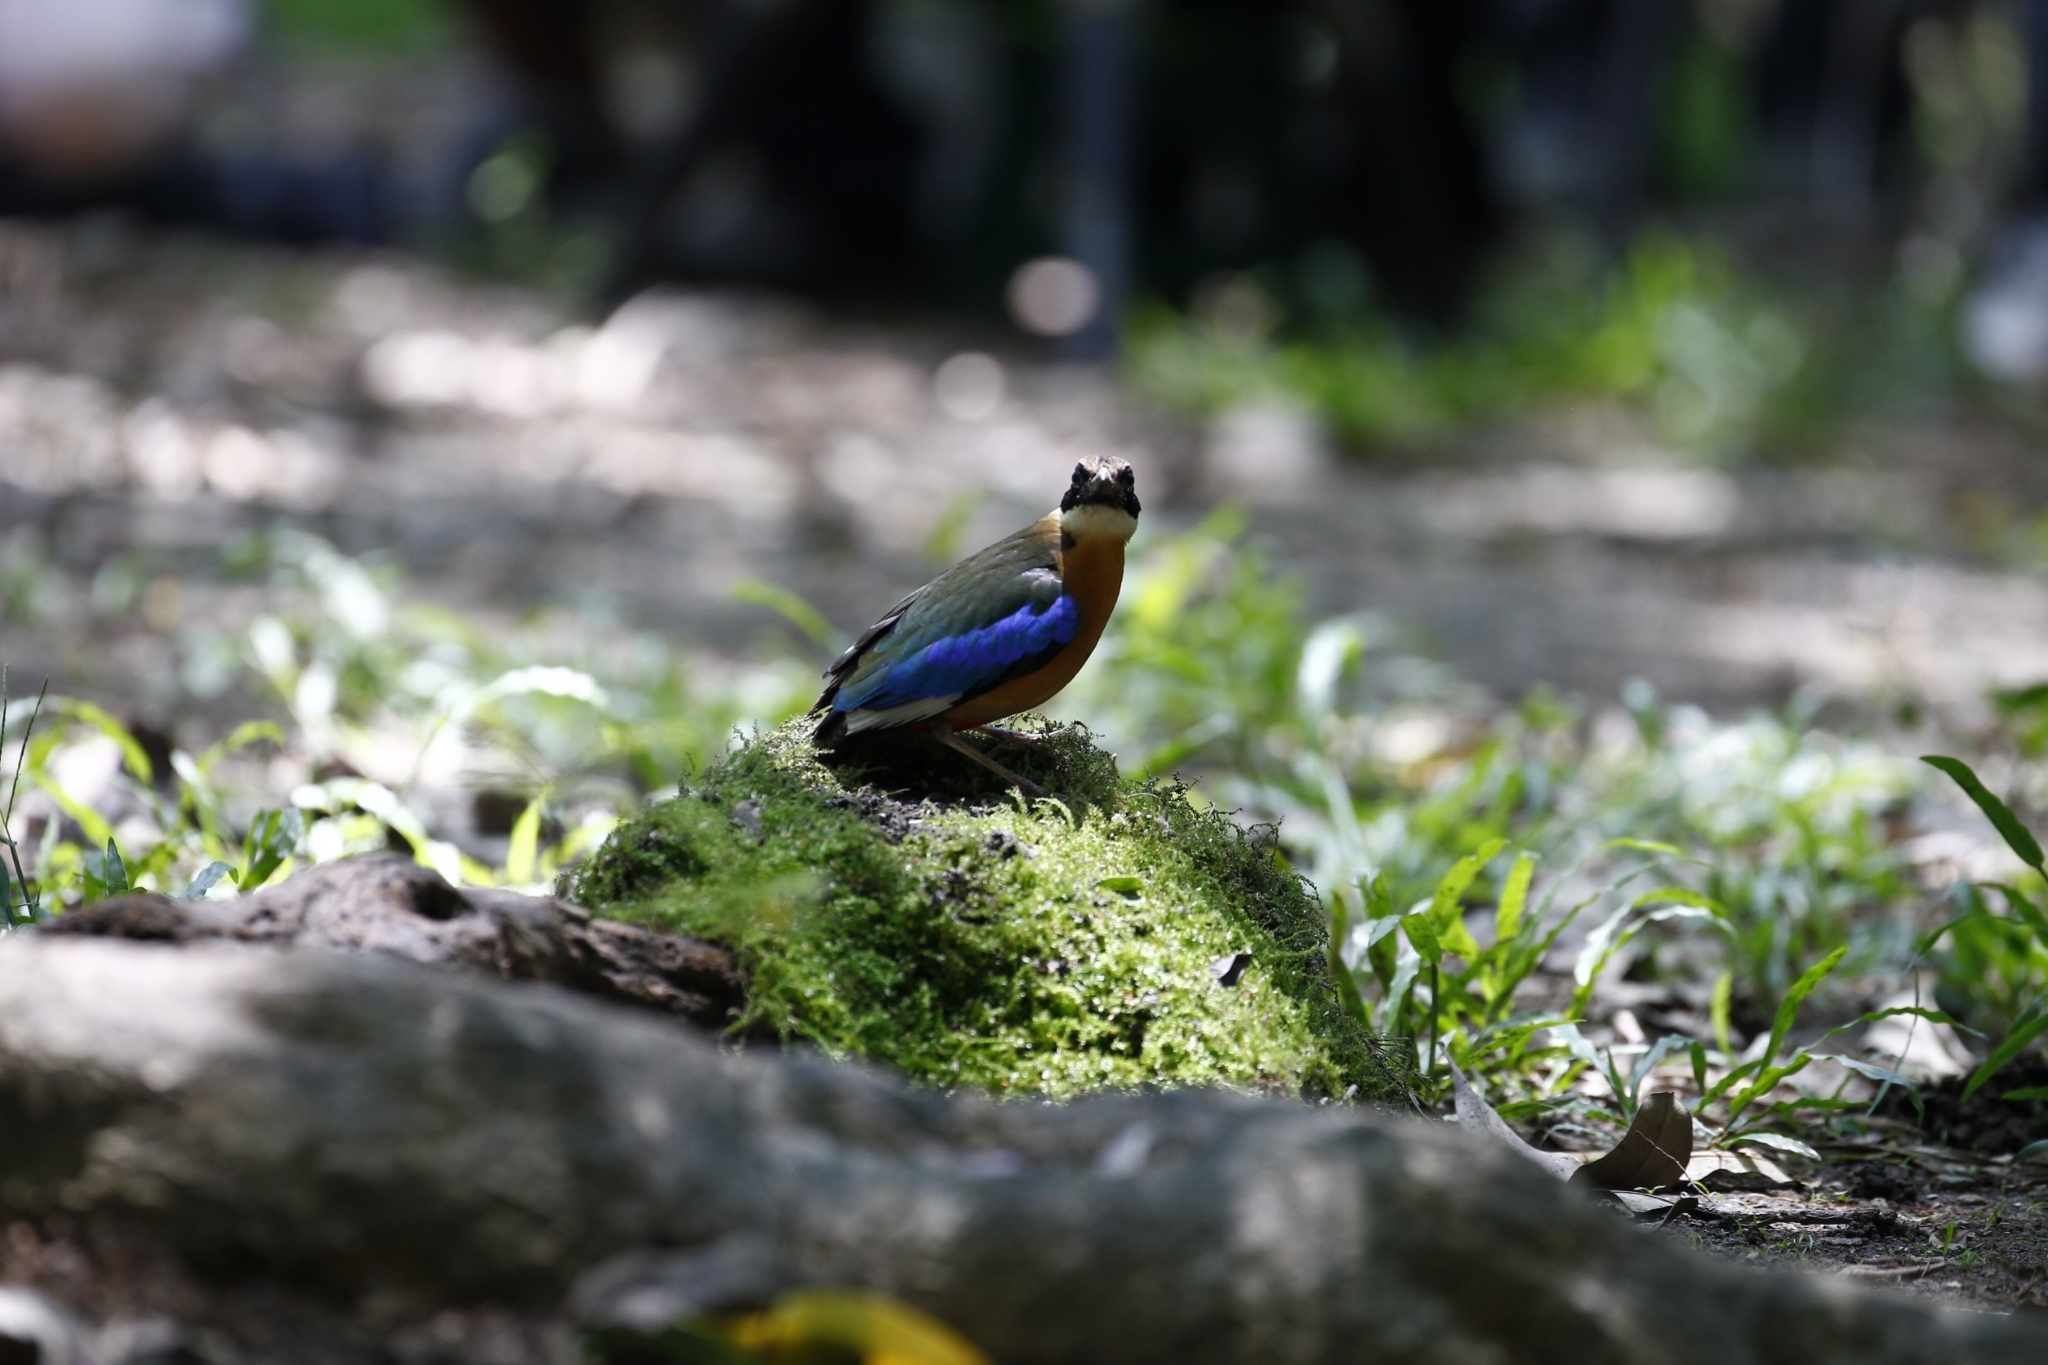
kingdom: Animalia
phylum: Chordata
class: Aves
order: Passeriformes
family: Pittidae
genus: Pitta
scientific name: Pitta moluccensis
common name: Blue-winged pitta
